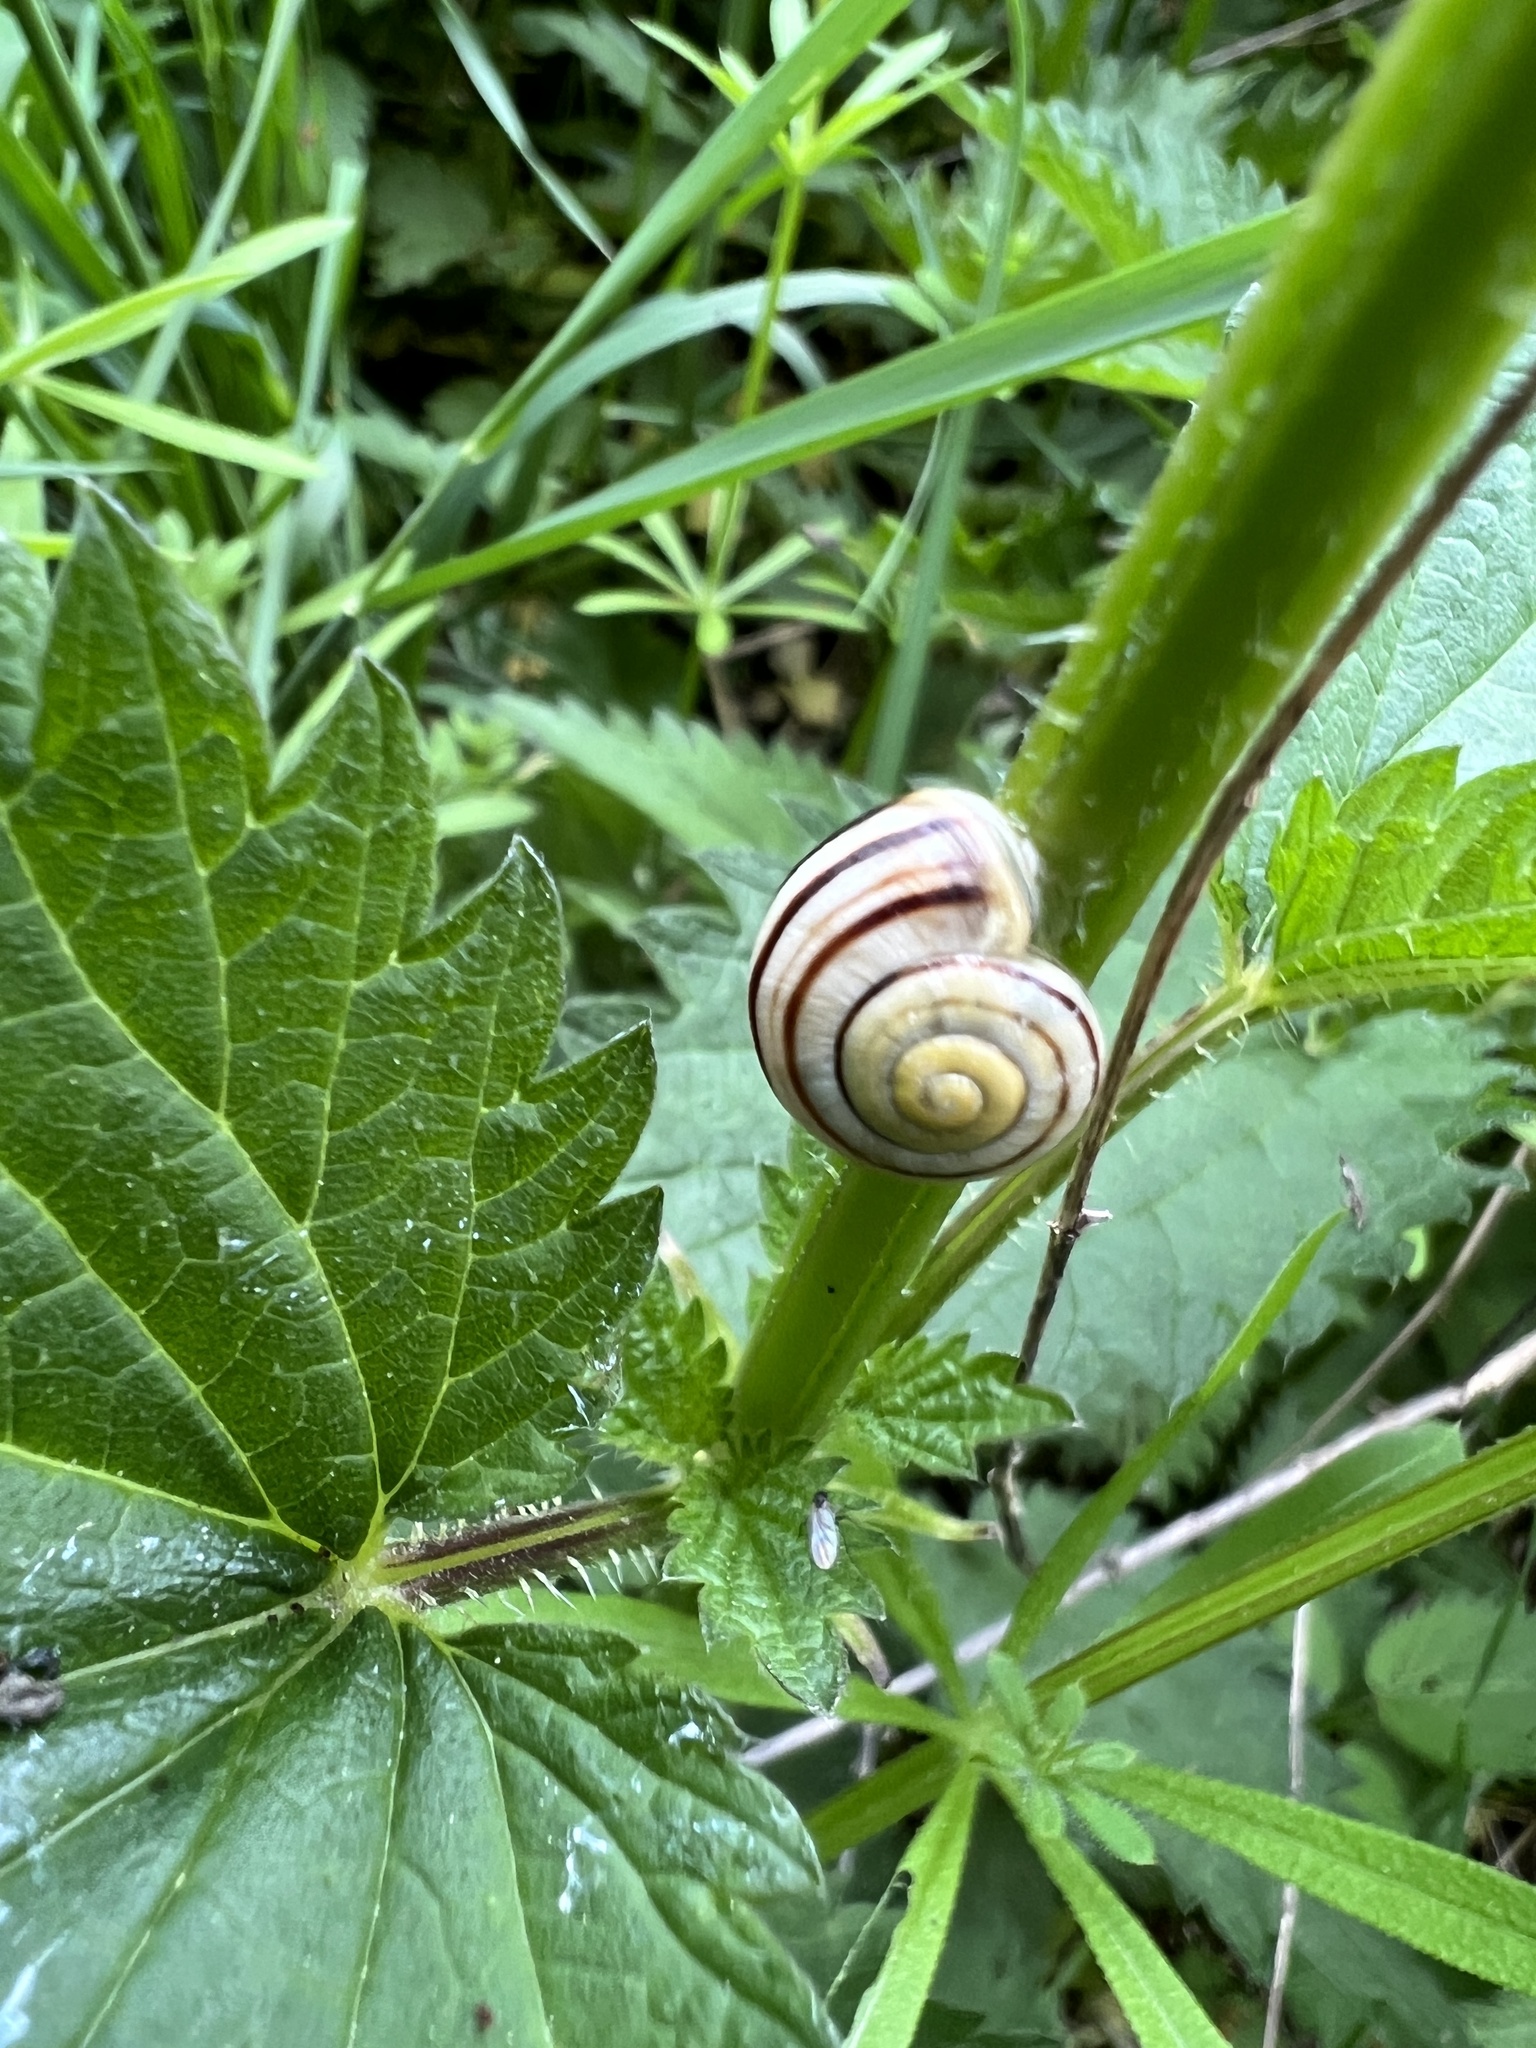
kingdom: Animalia
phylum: Mollusca
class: Gastropoda
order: Stylommatophora
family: Helicidae
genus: Cepaea
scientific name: Cepaea
